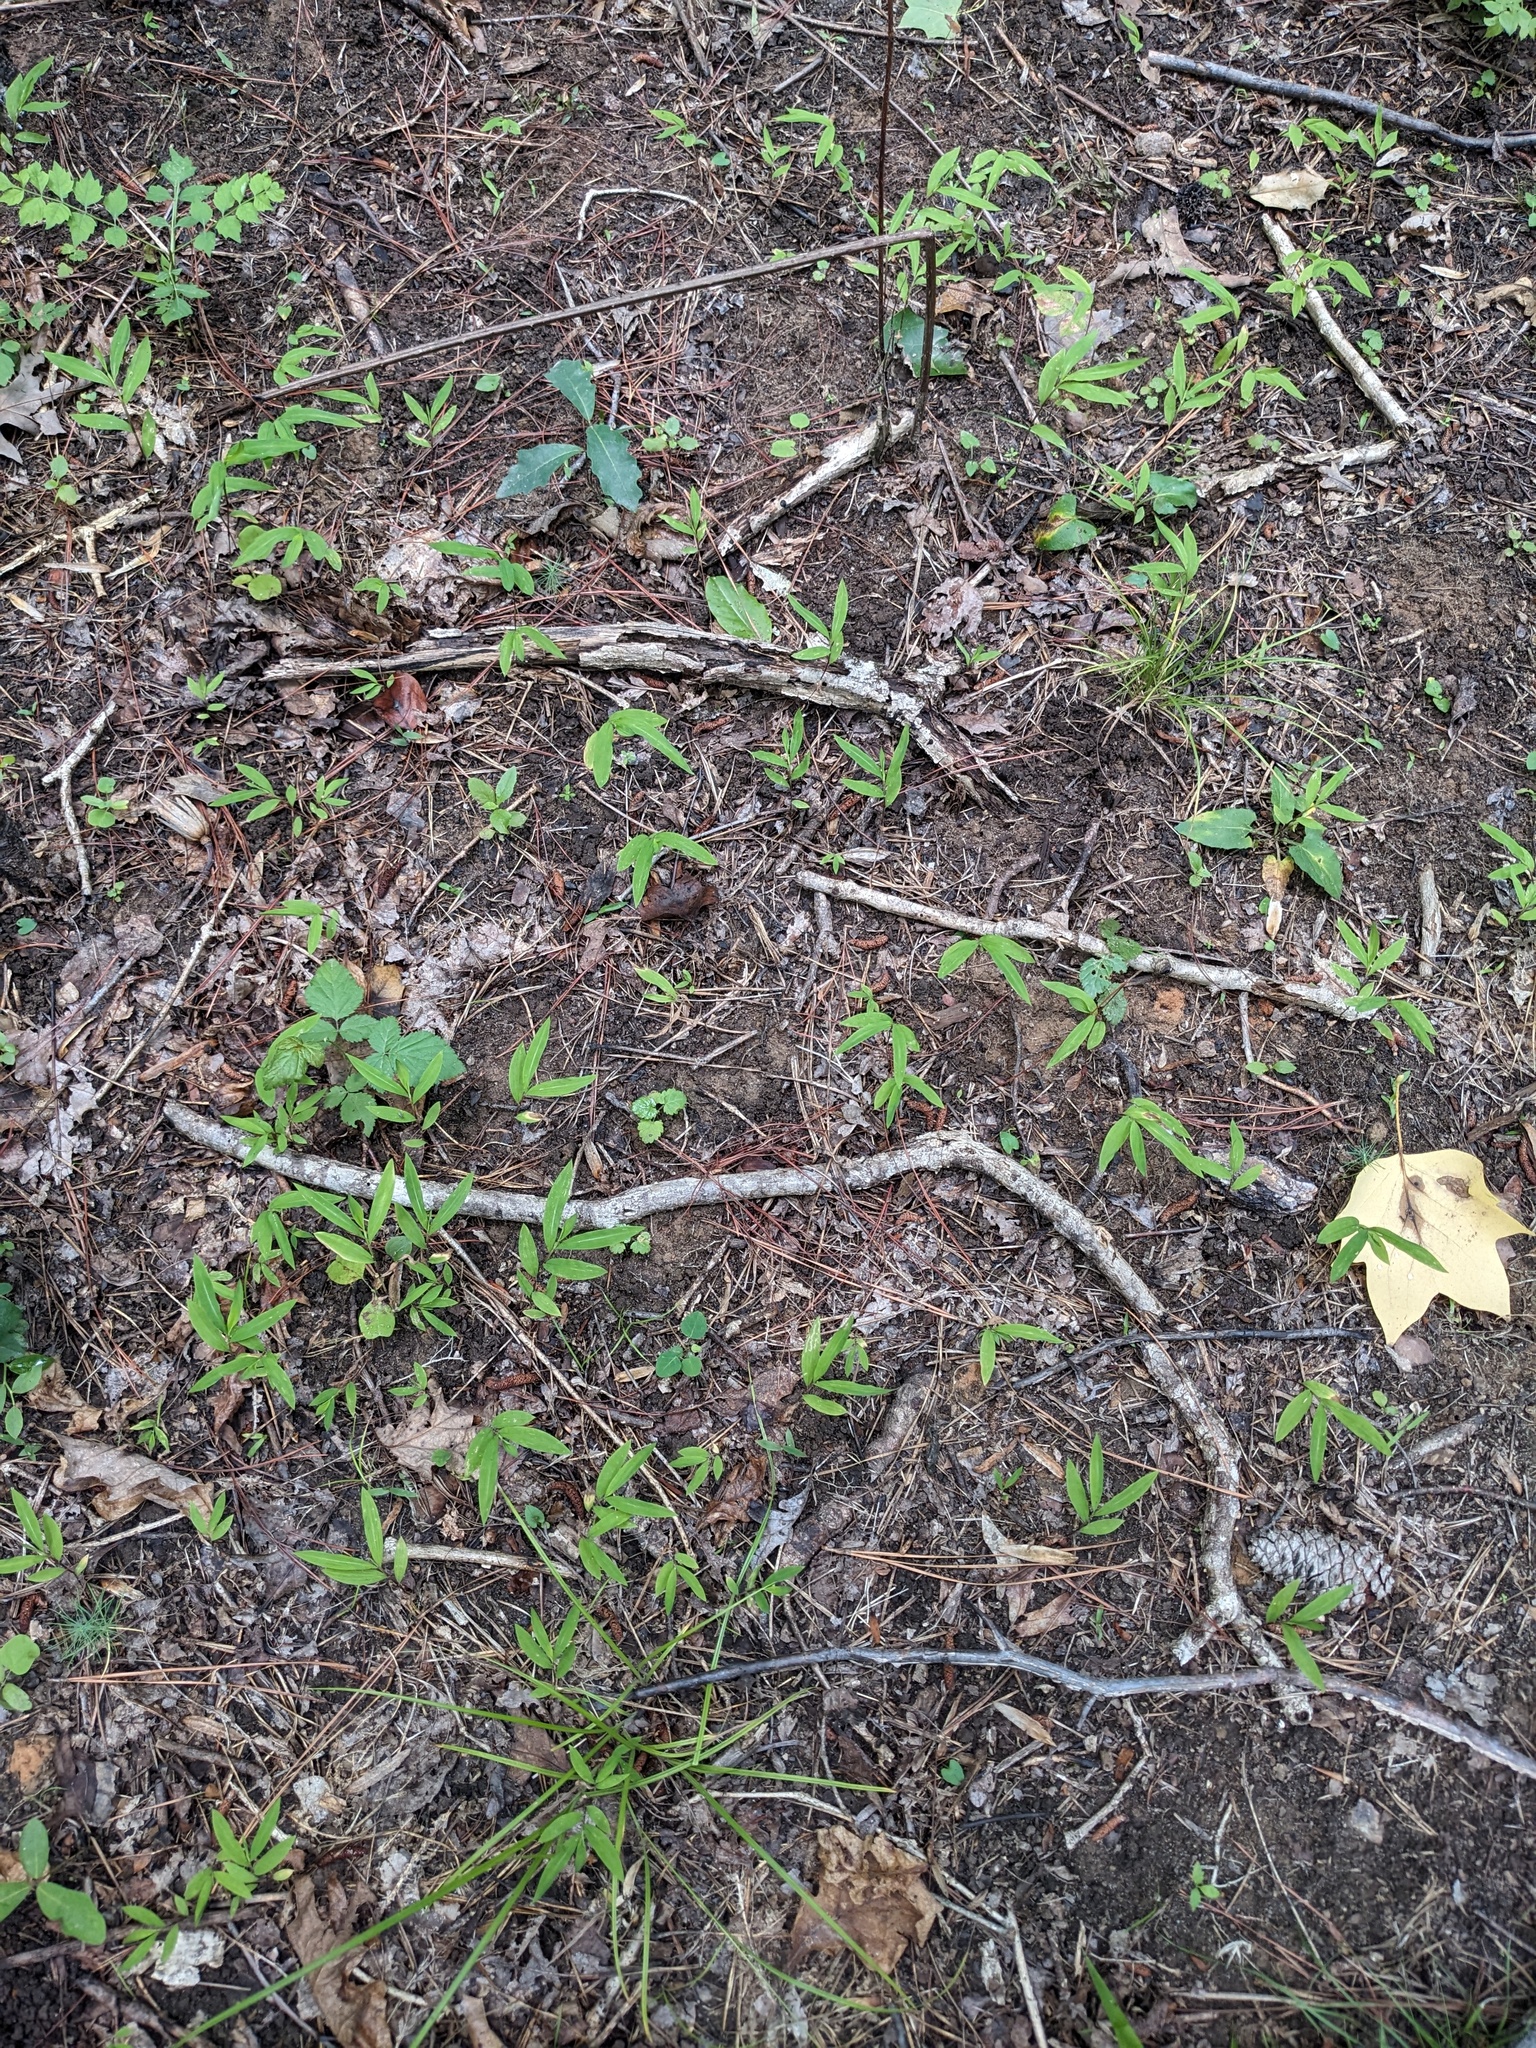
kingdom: Plantae
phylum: Tracheophyta
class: Liliopsida
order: Poales
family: Poaceae
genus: Microstegium
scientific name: Microstegium vimineum
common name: Japanese stiltgrass
